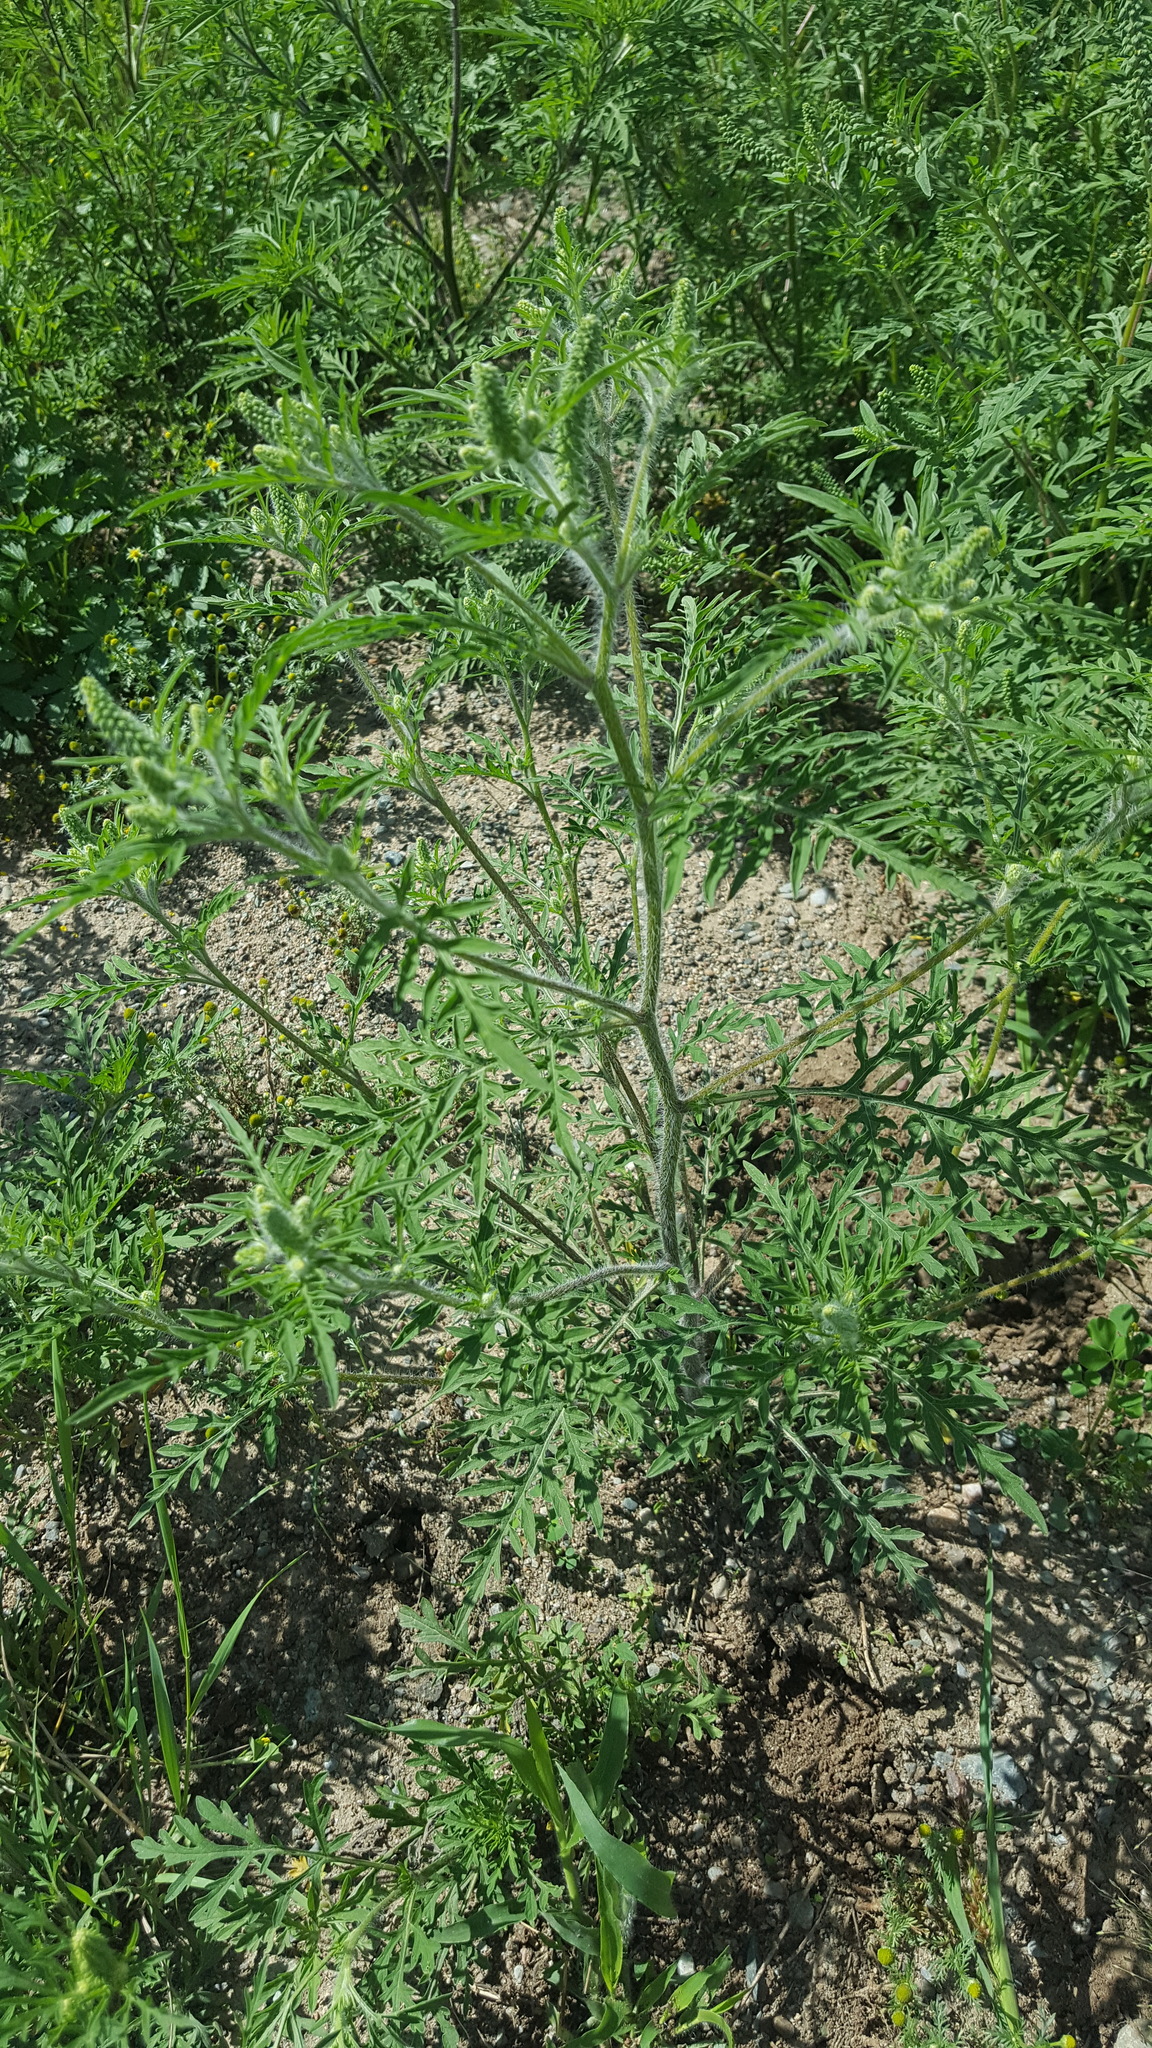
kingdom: Plantae
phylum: Tracheophyta
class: Magnoliopsida
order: Asterales
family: Asteraceae
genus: Ambrosia
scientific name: Ambrosia artemisiifolia
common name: Annual ragweed
